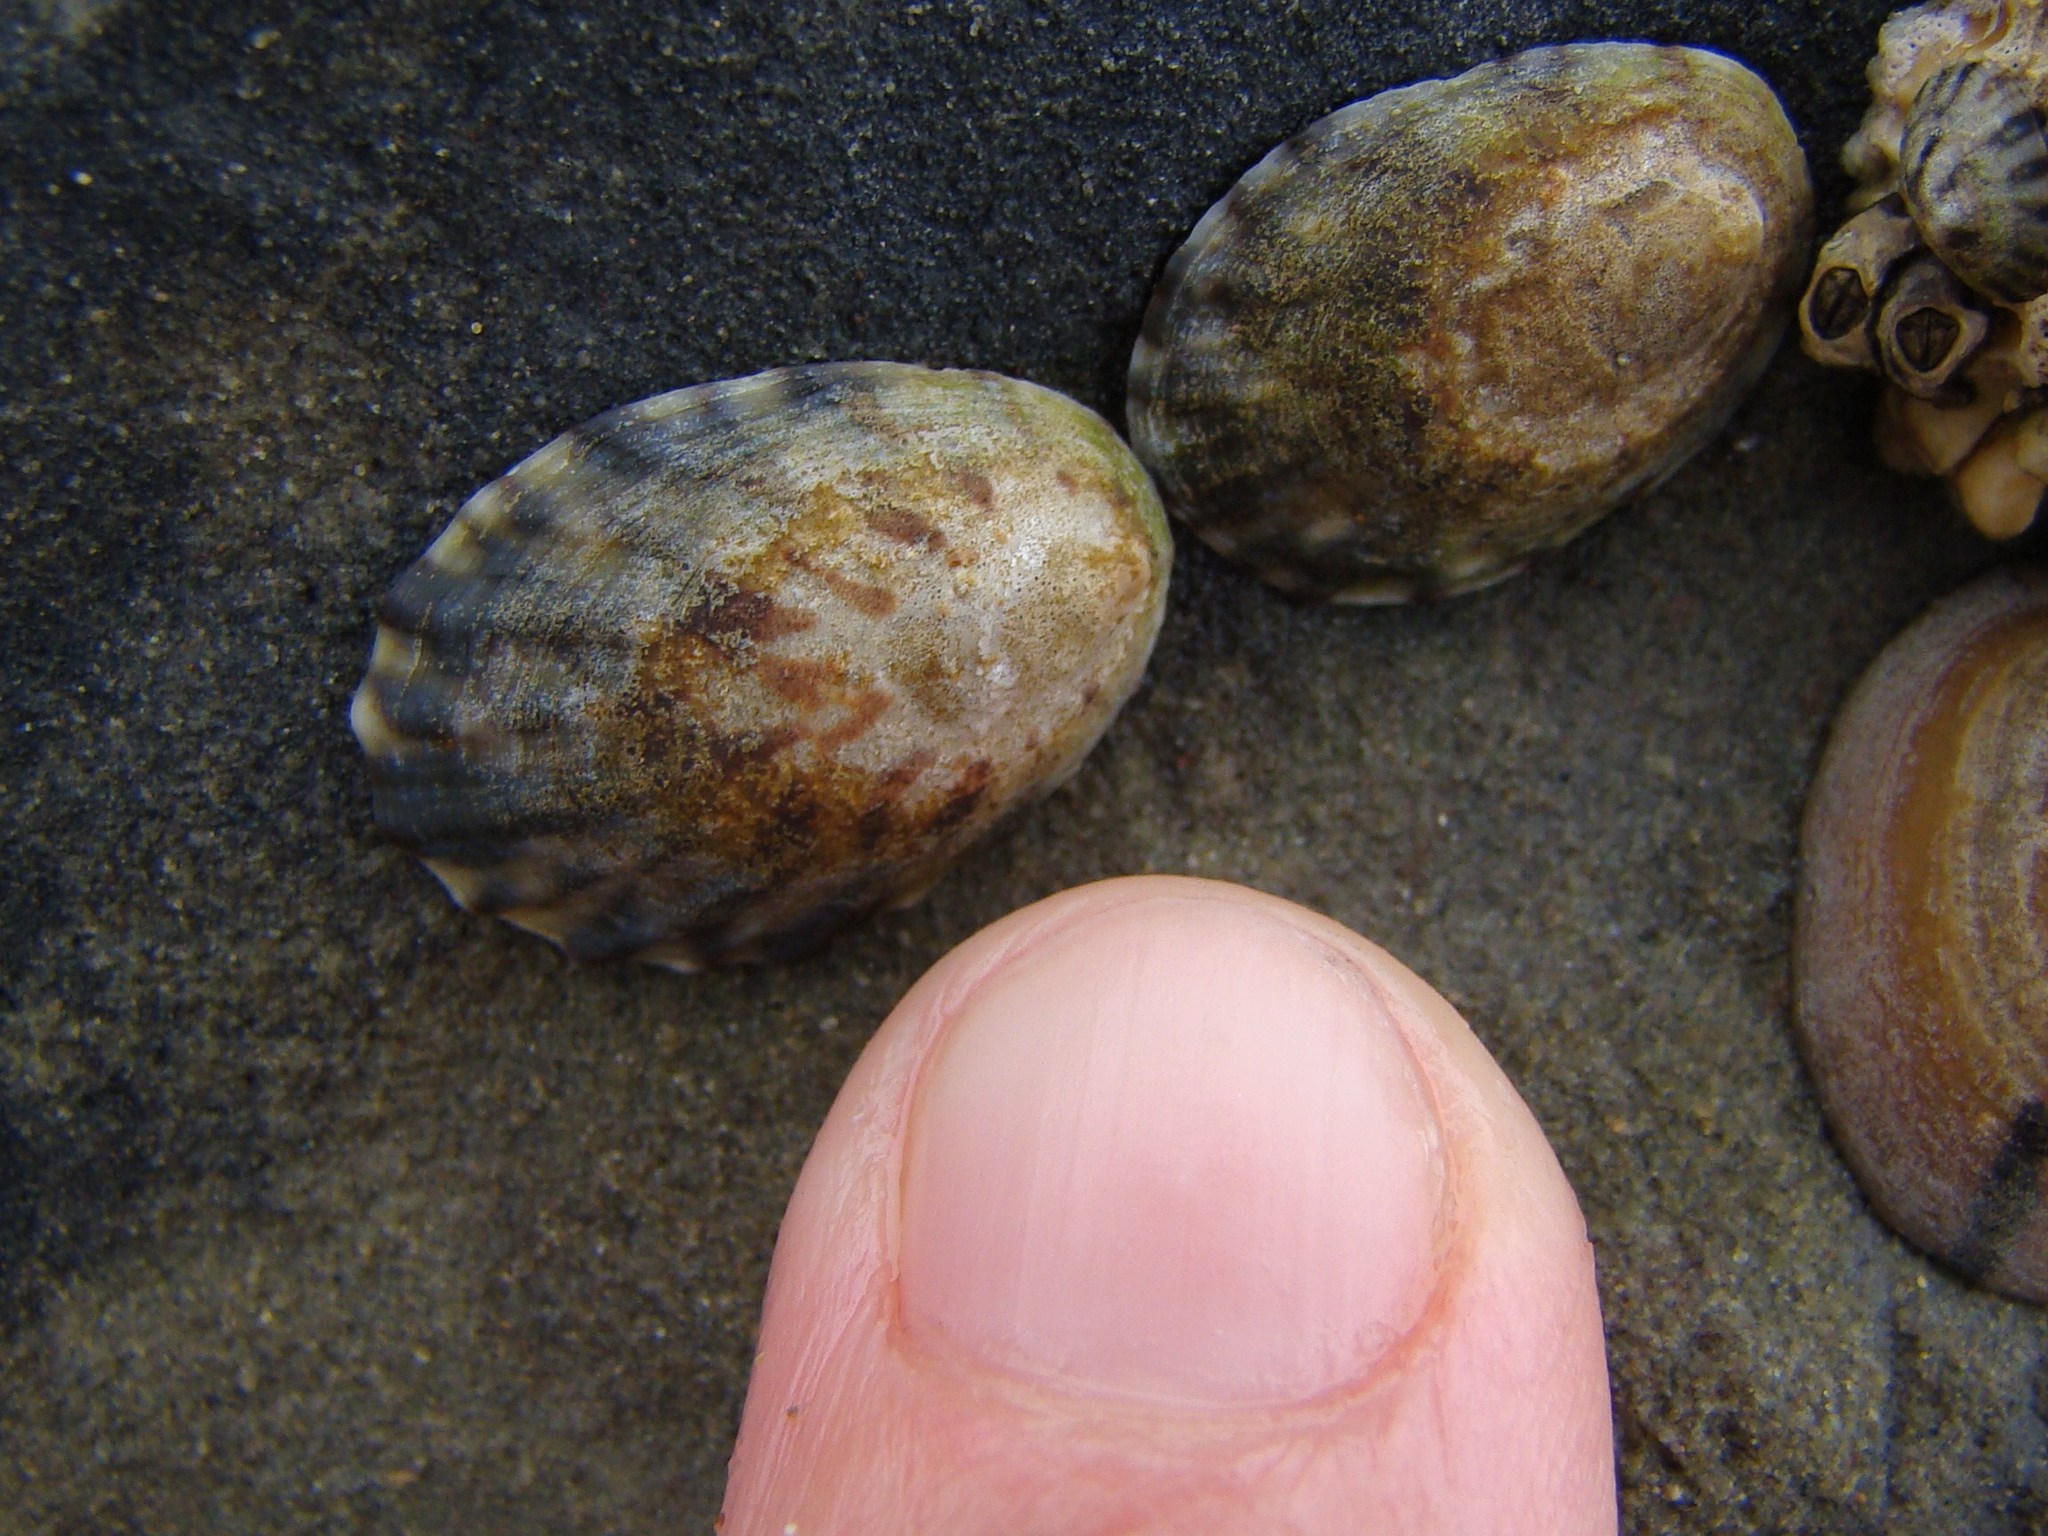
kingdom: Animalia
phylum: Mollusca
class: Gastropoda
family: Nacellidae
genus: Cellana
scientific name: Cellana radians
